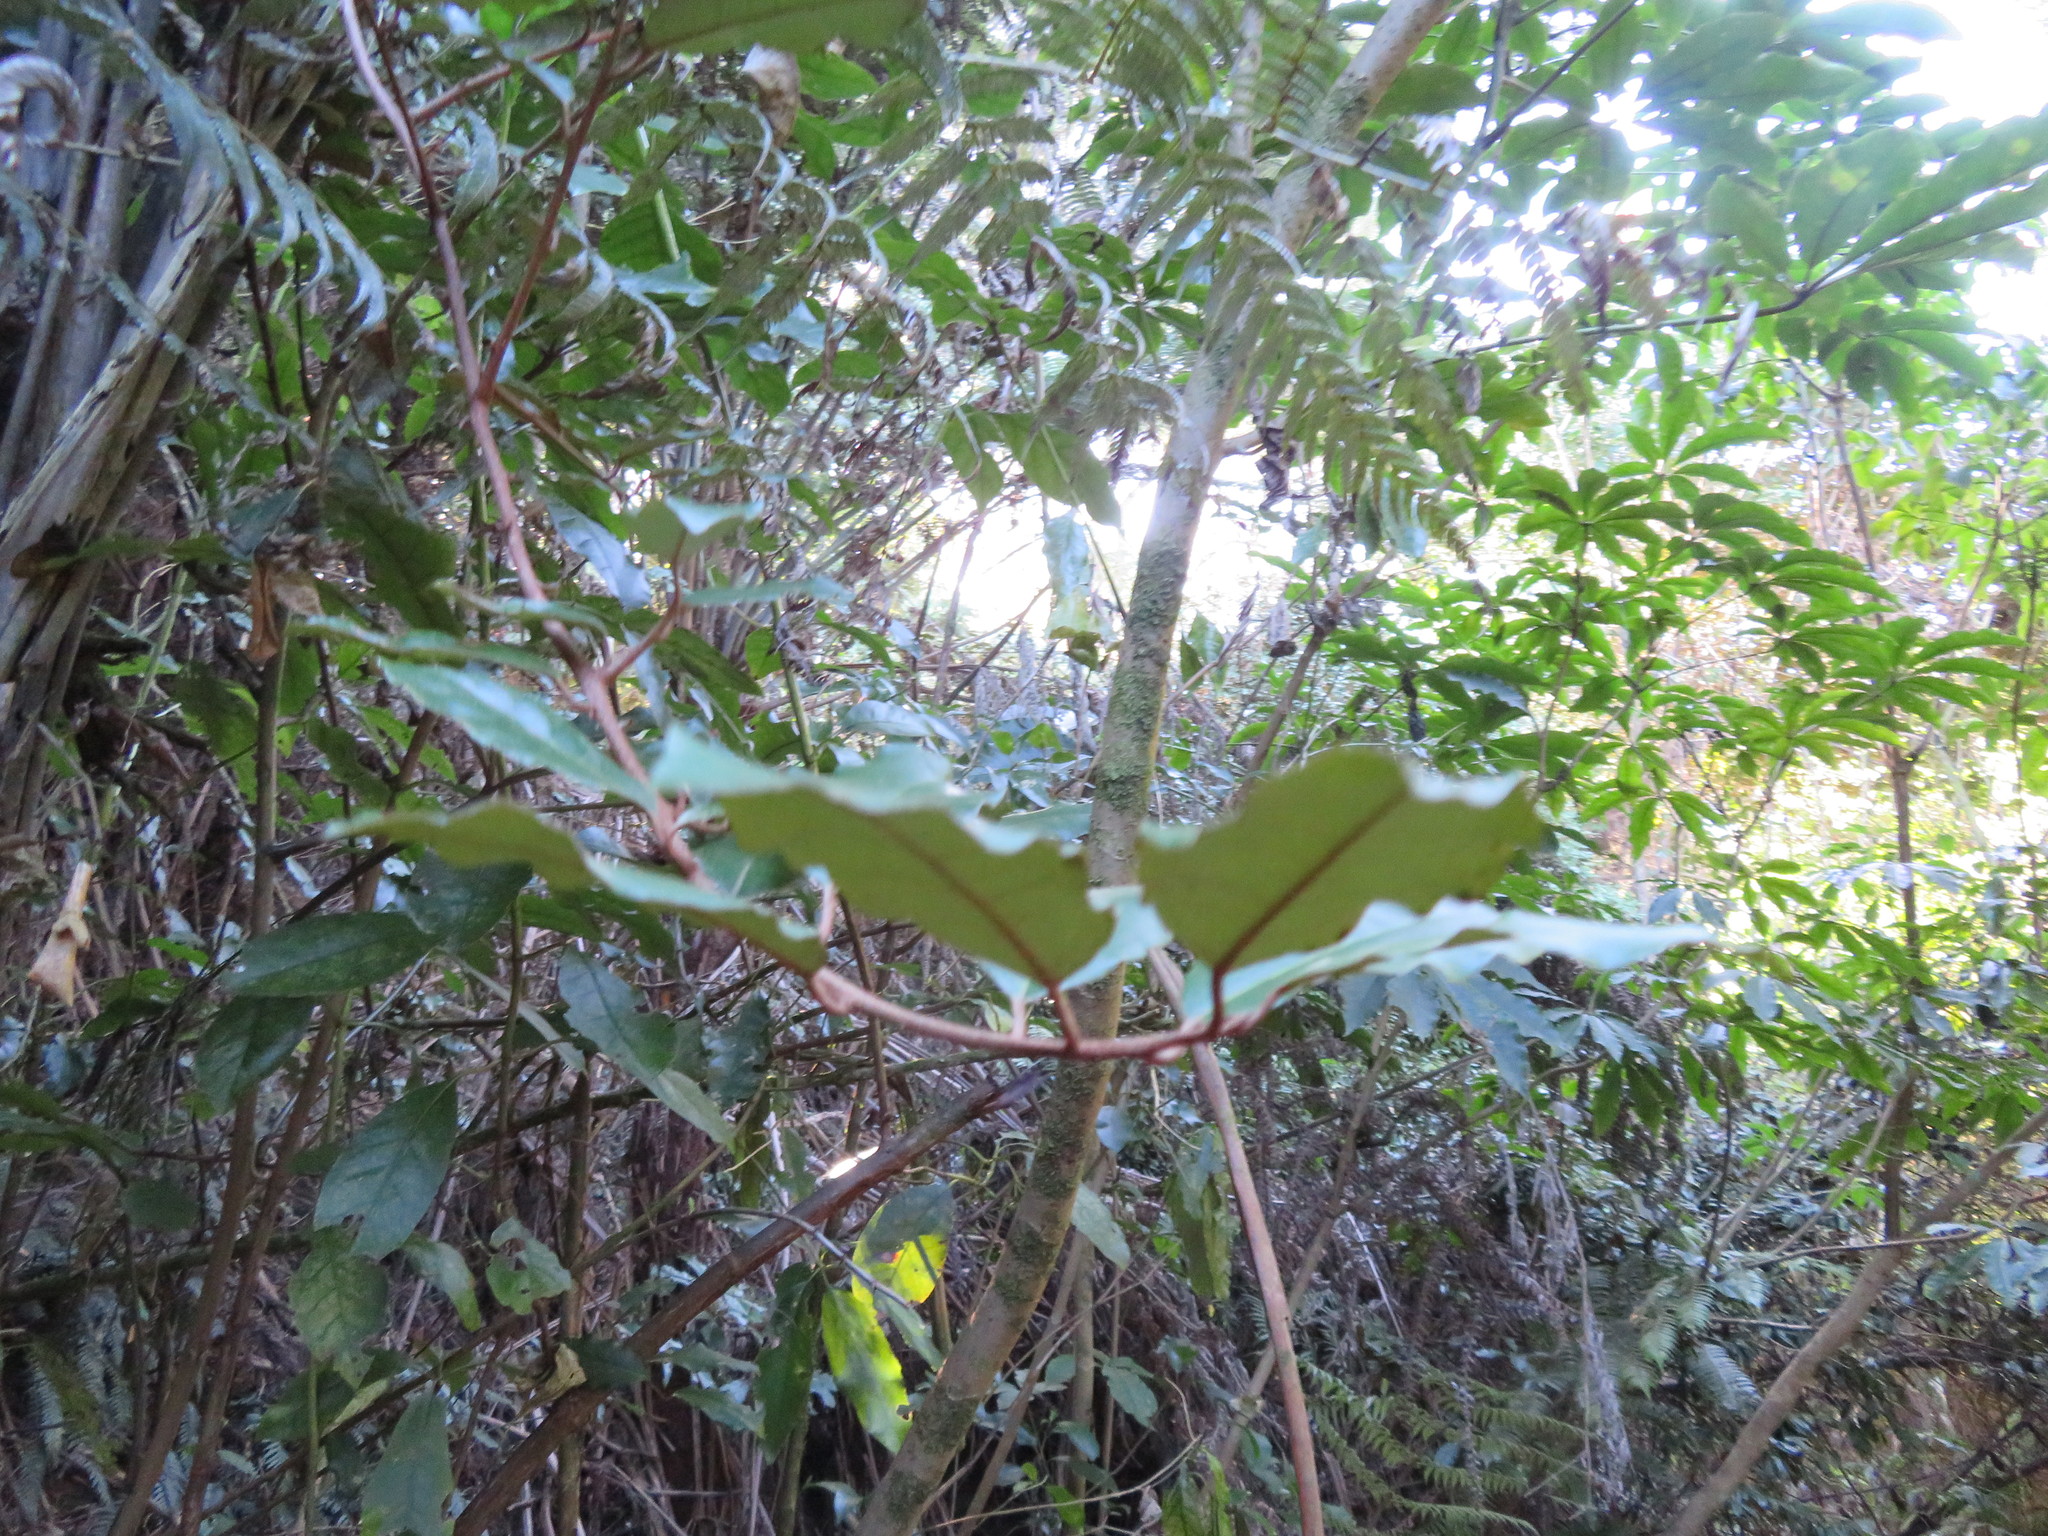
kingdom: Plantae
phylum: Tracheophyta
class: Magnoliopsida
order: Rosales
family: Elaeagnaceae
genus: Elaeagnus
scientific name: Elaeagnus reflexa
